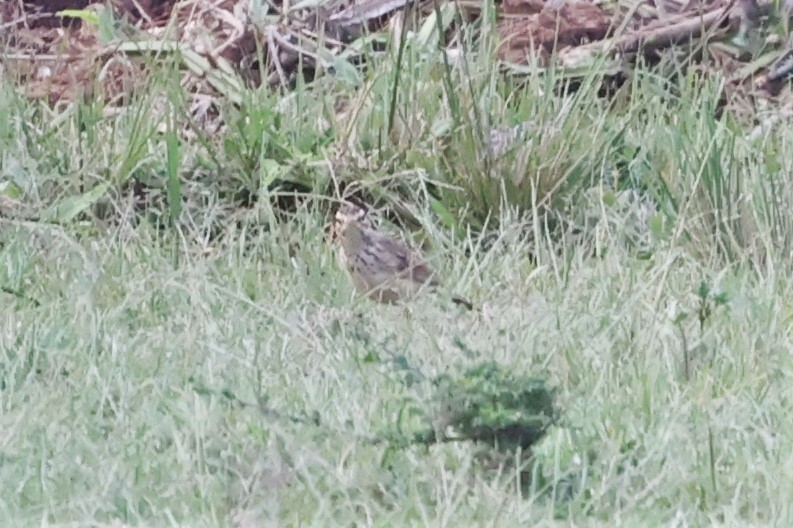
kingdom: Animalia
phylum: Chordata
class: Aves
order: Passeriformes
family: Motacillidae
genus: Anthus
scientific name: Anthus cinnamomeus
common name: African pipit
